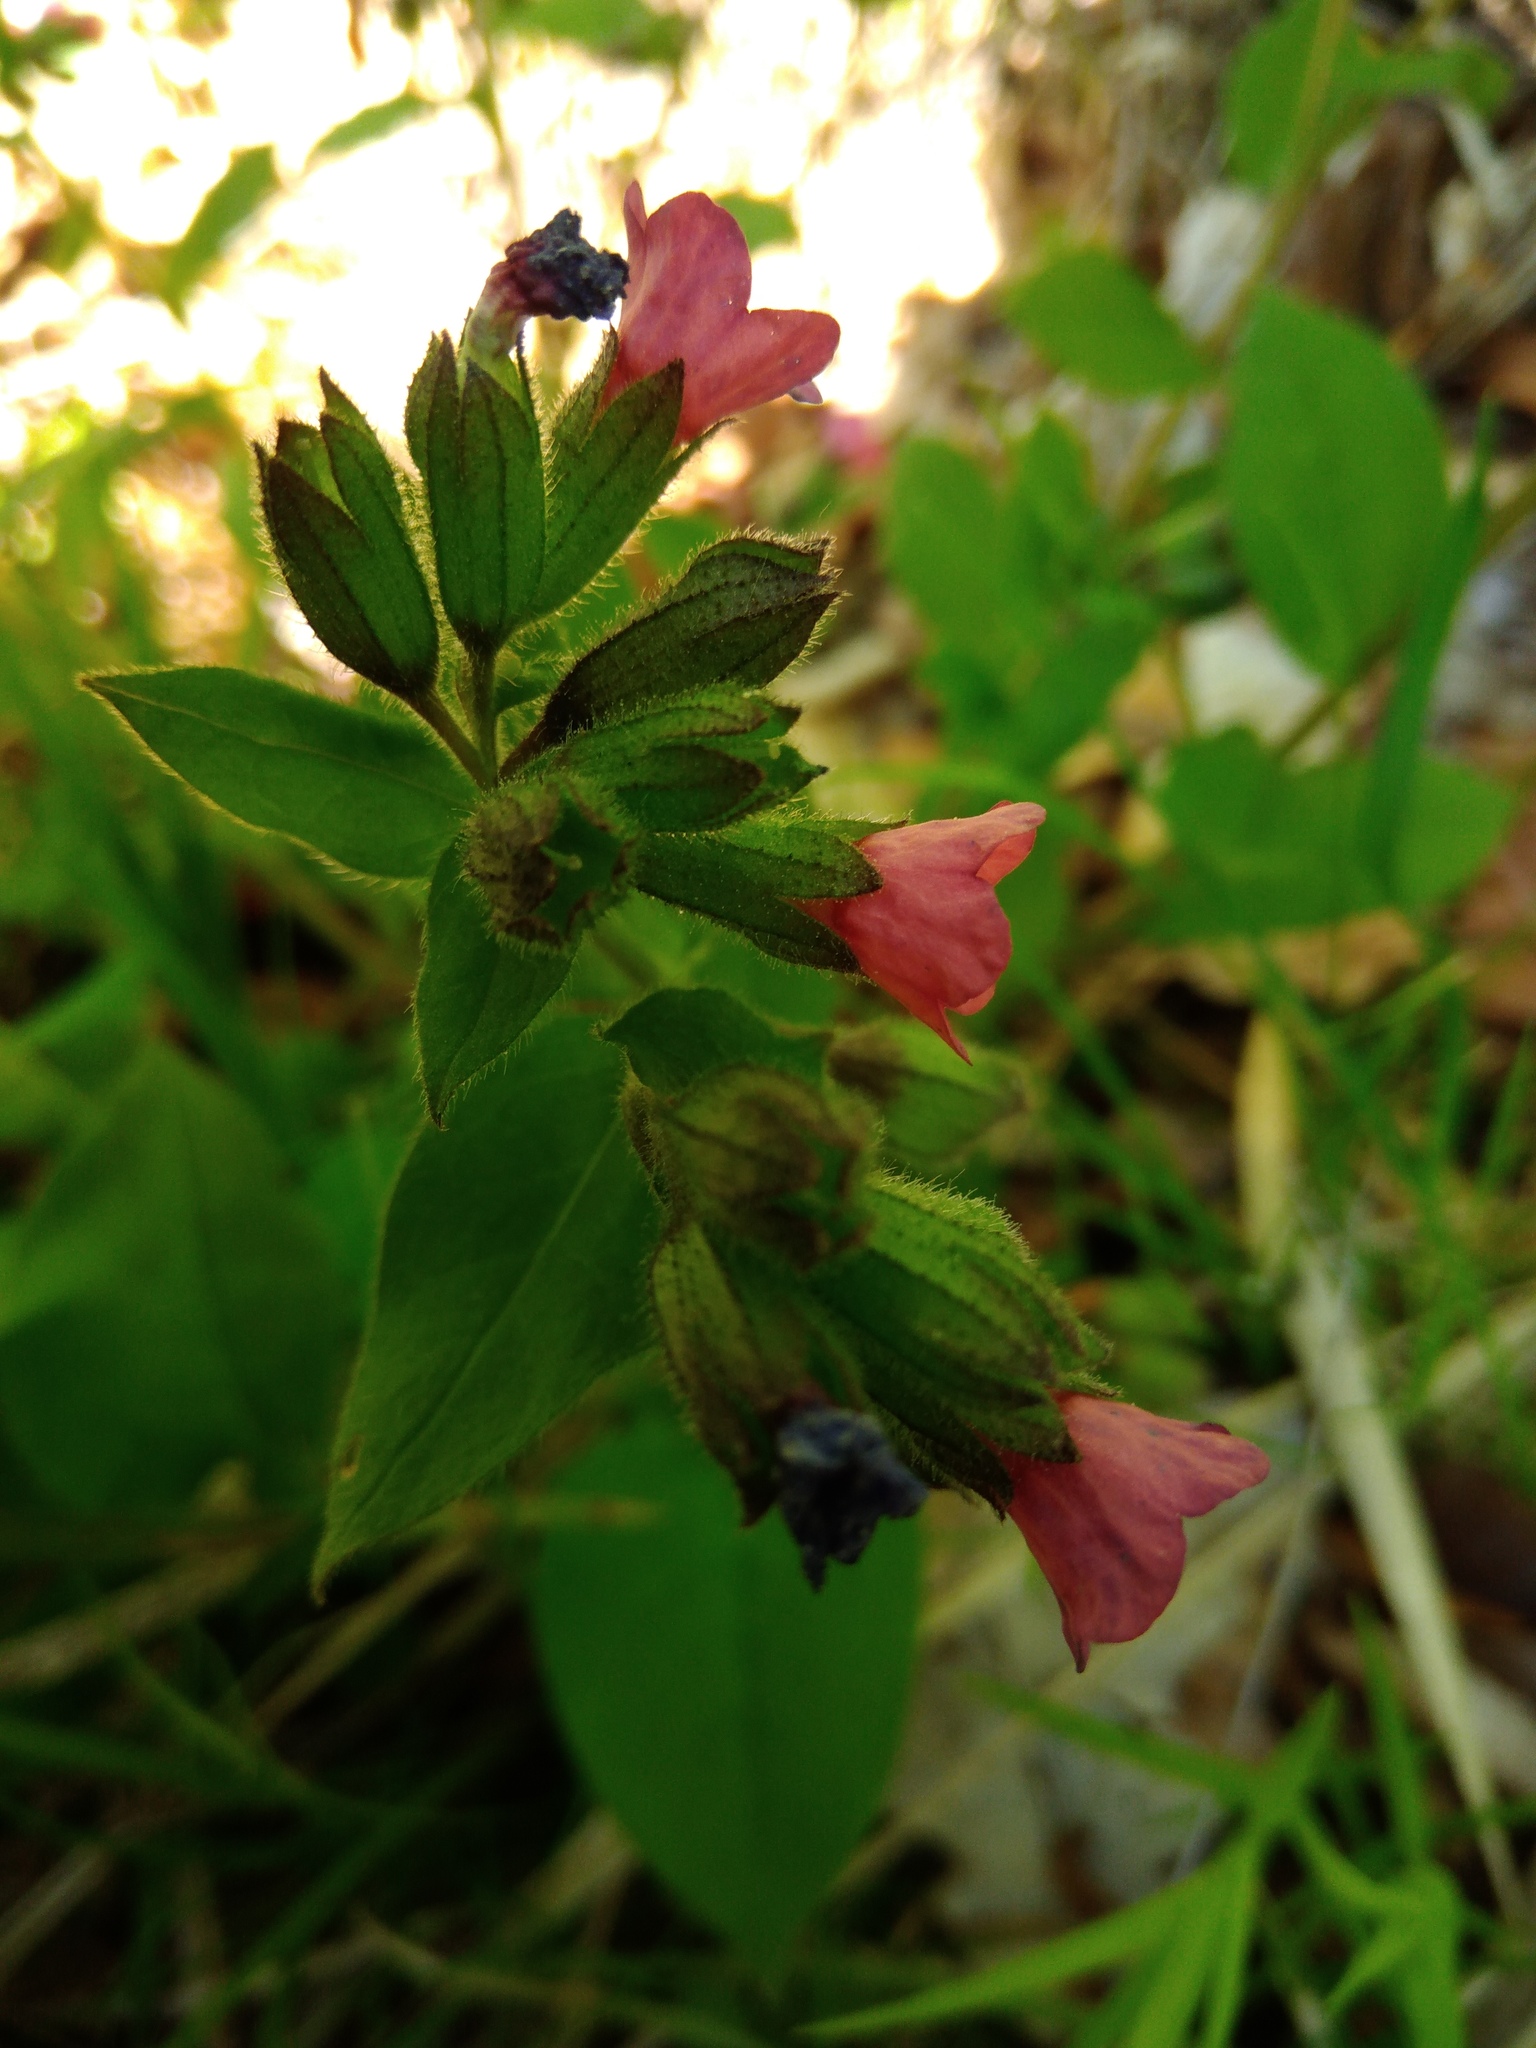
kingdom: Plantae
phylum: Tracheophyta
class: Magnoliopsida
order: Boraginales
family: Boraginaceae
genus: Pulmonaria
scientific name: Pulmonaria obscura
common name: Suffolk lungwort
